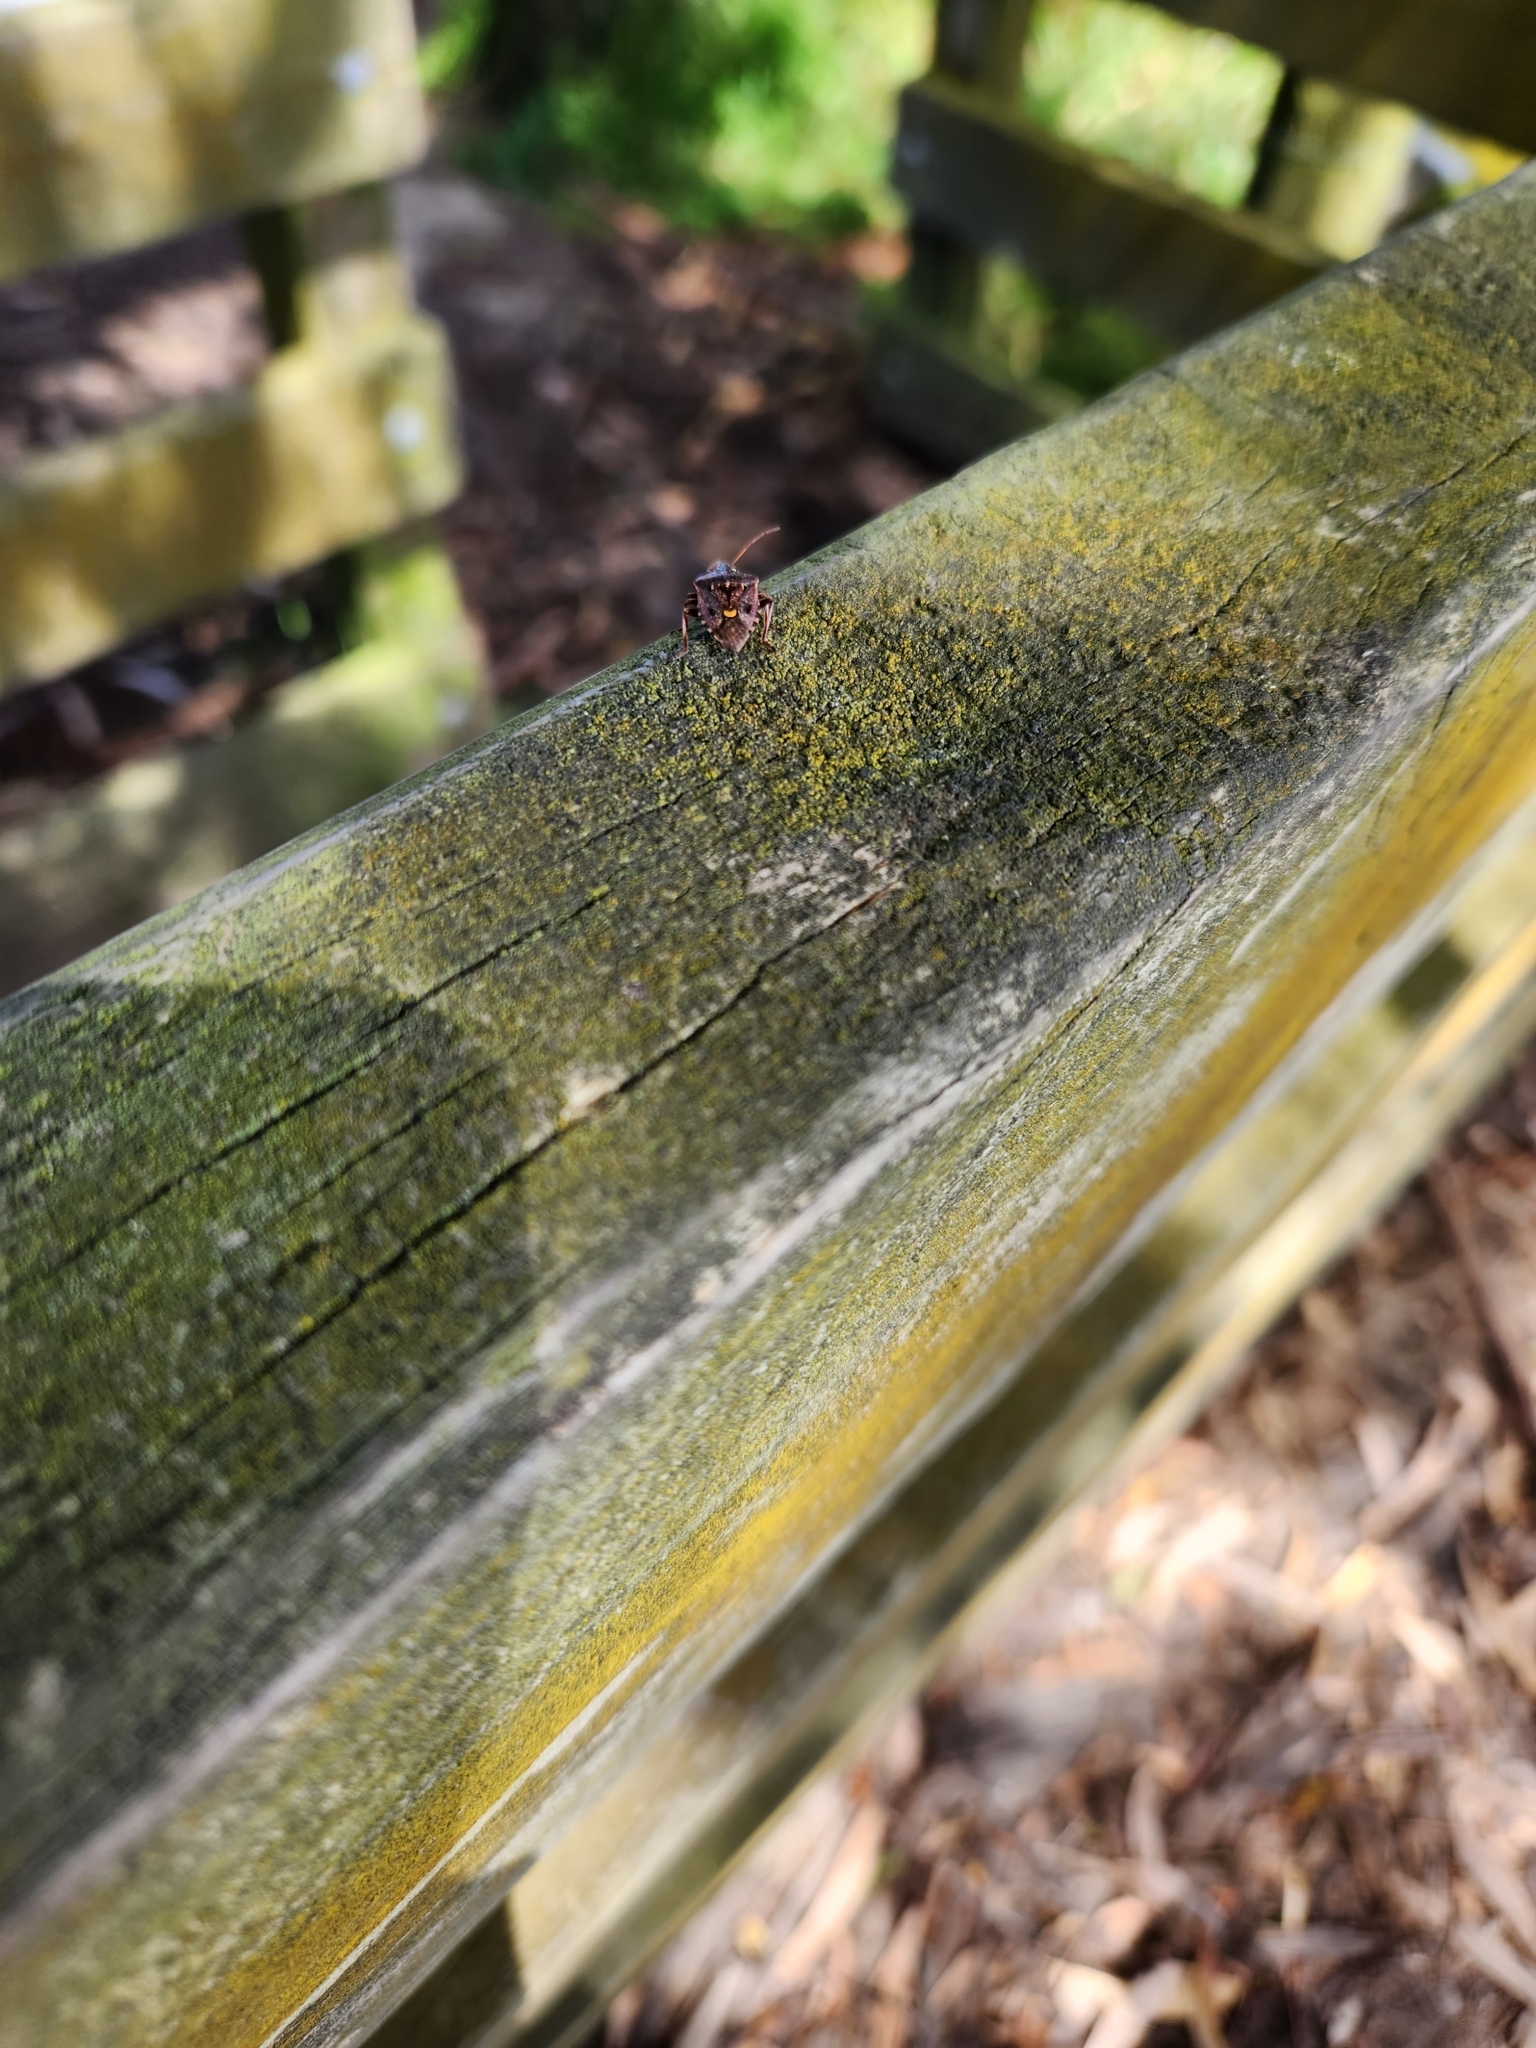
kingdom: Animalia
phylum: Arthropoda
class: Insecta
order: Hemiptera
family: Pentatomidae
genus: Cermatulus
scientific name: Cermatulus nasalis
